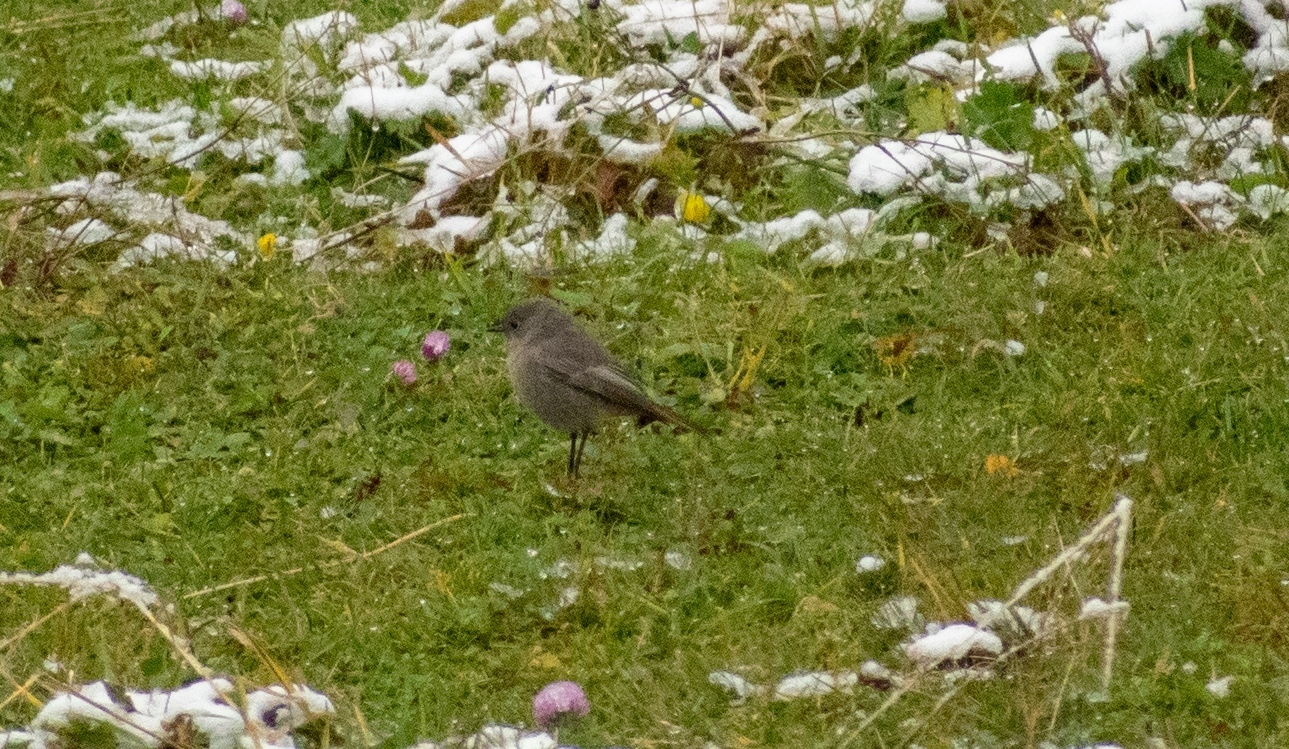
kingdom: Animalia
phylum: Chordata
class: Aves
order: Passeriformes
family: Muscicapidae
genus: Phoenicurus
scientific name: Phoenicurus ochruros
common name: Black redstart
